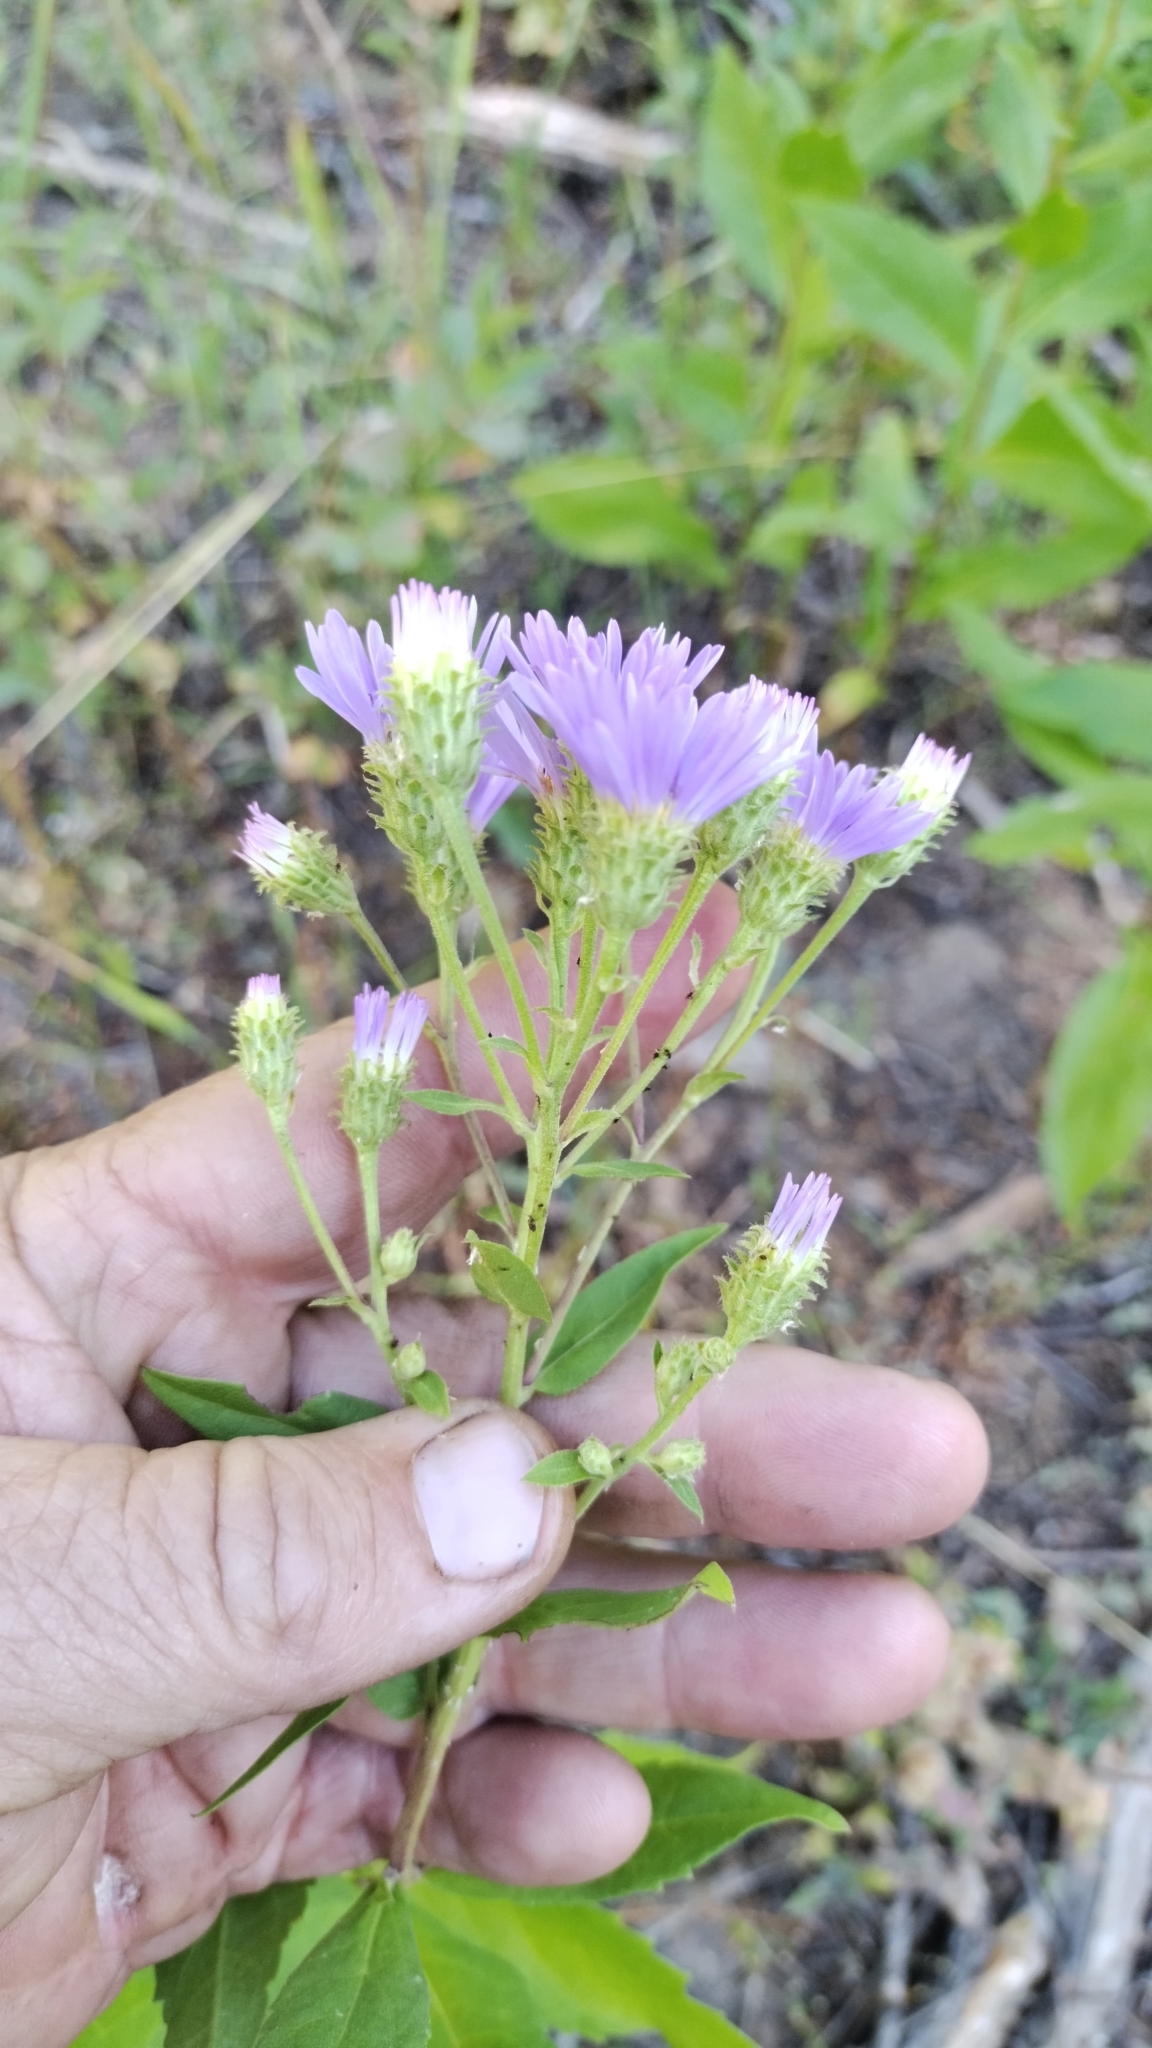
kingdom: Plantae
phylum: Tracheophyta
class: Magnoliopsida
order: Asterales
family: Asteraceae
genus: Eurybia
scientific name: Eurybia conspicua
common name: Showy aster
